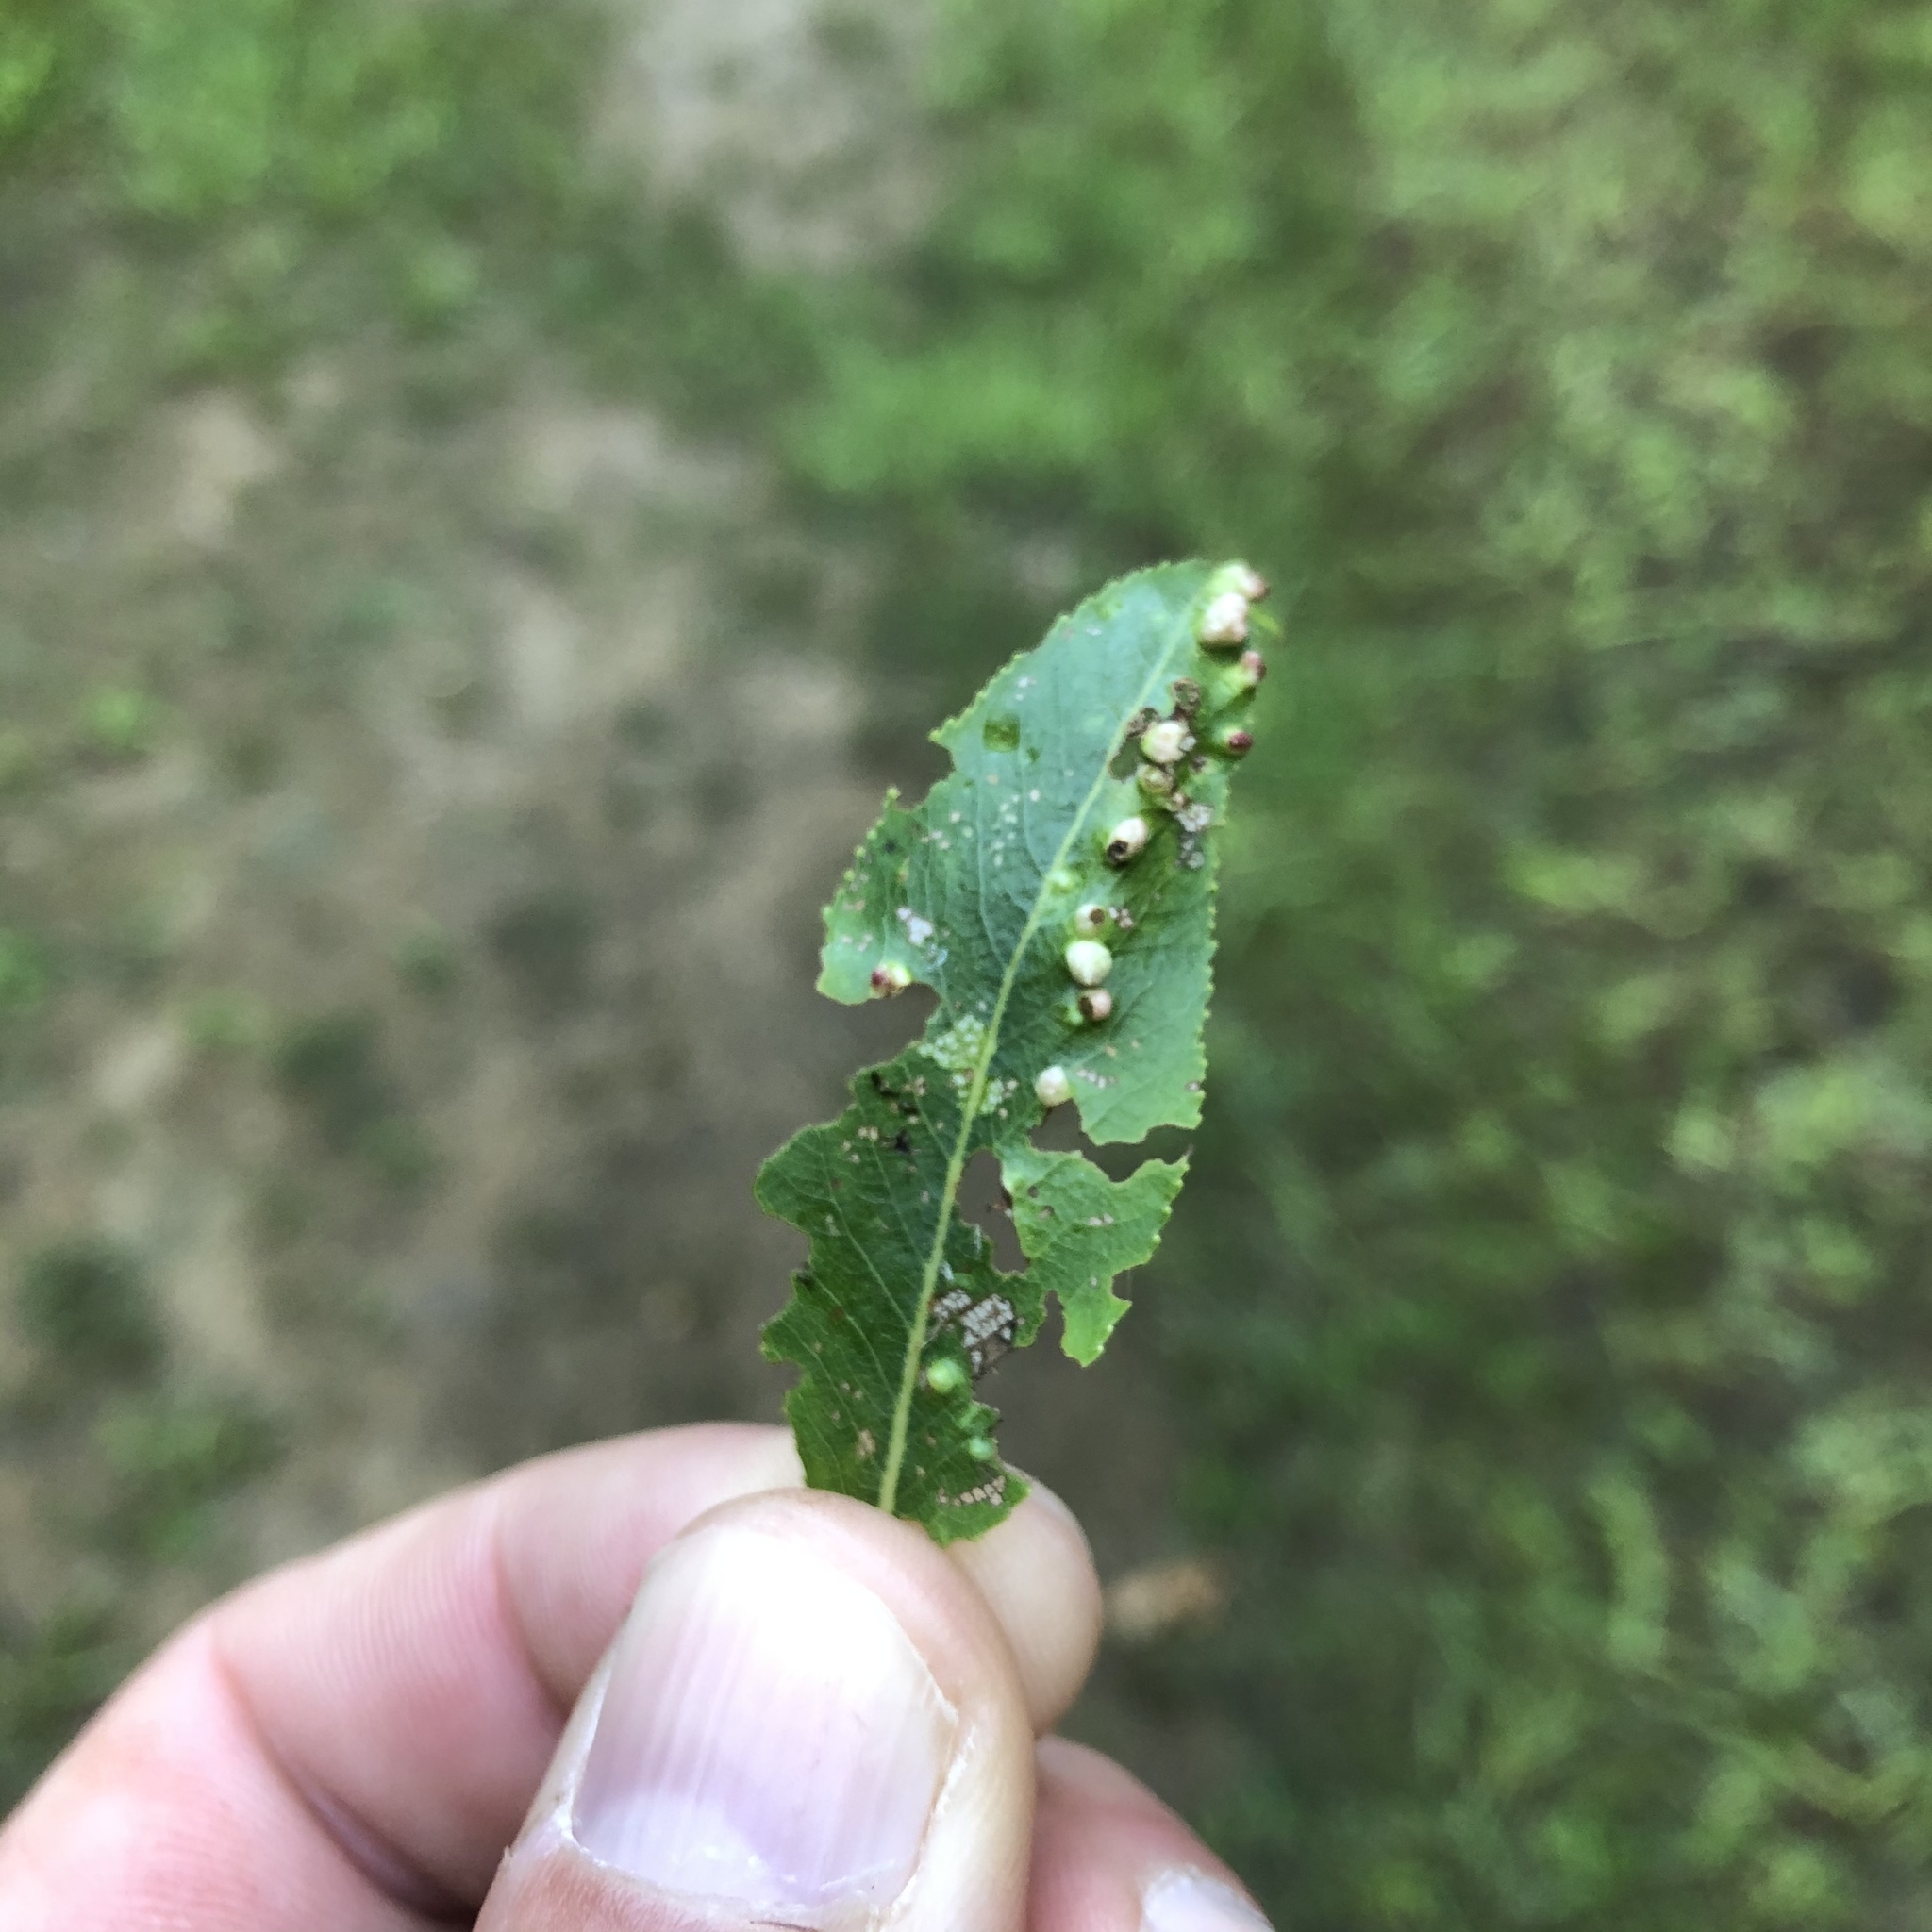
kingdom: Animalia
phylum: Arthropoda
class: Arachnida
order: Trombidiformes
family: Eriophyidae
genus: Aculus
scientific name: Aculus tetanothrix
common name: Willow bead gall mite
